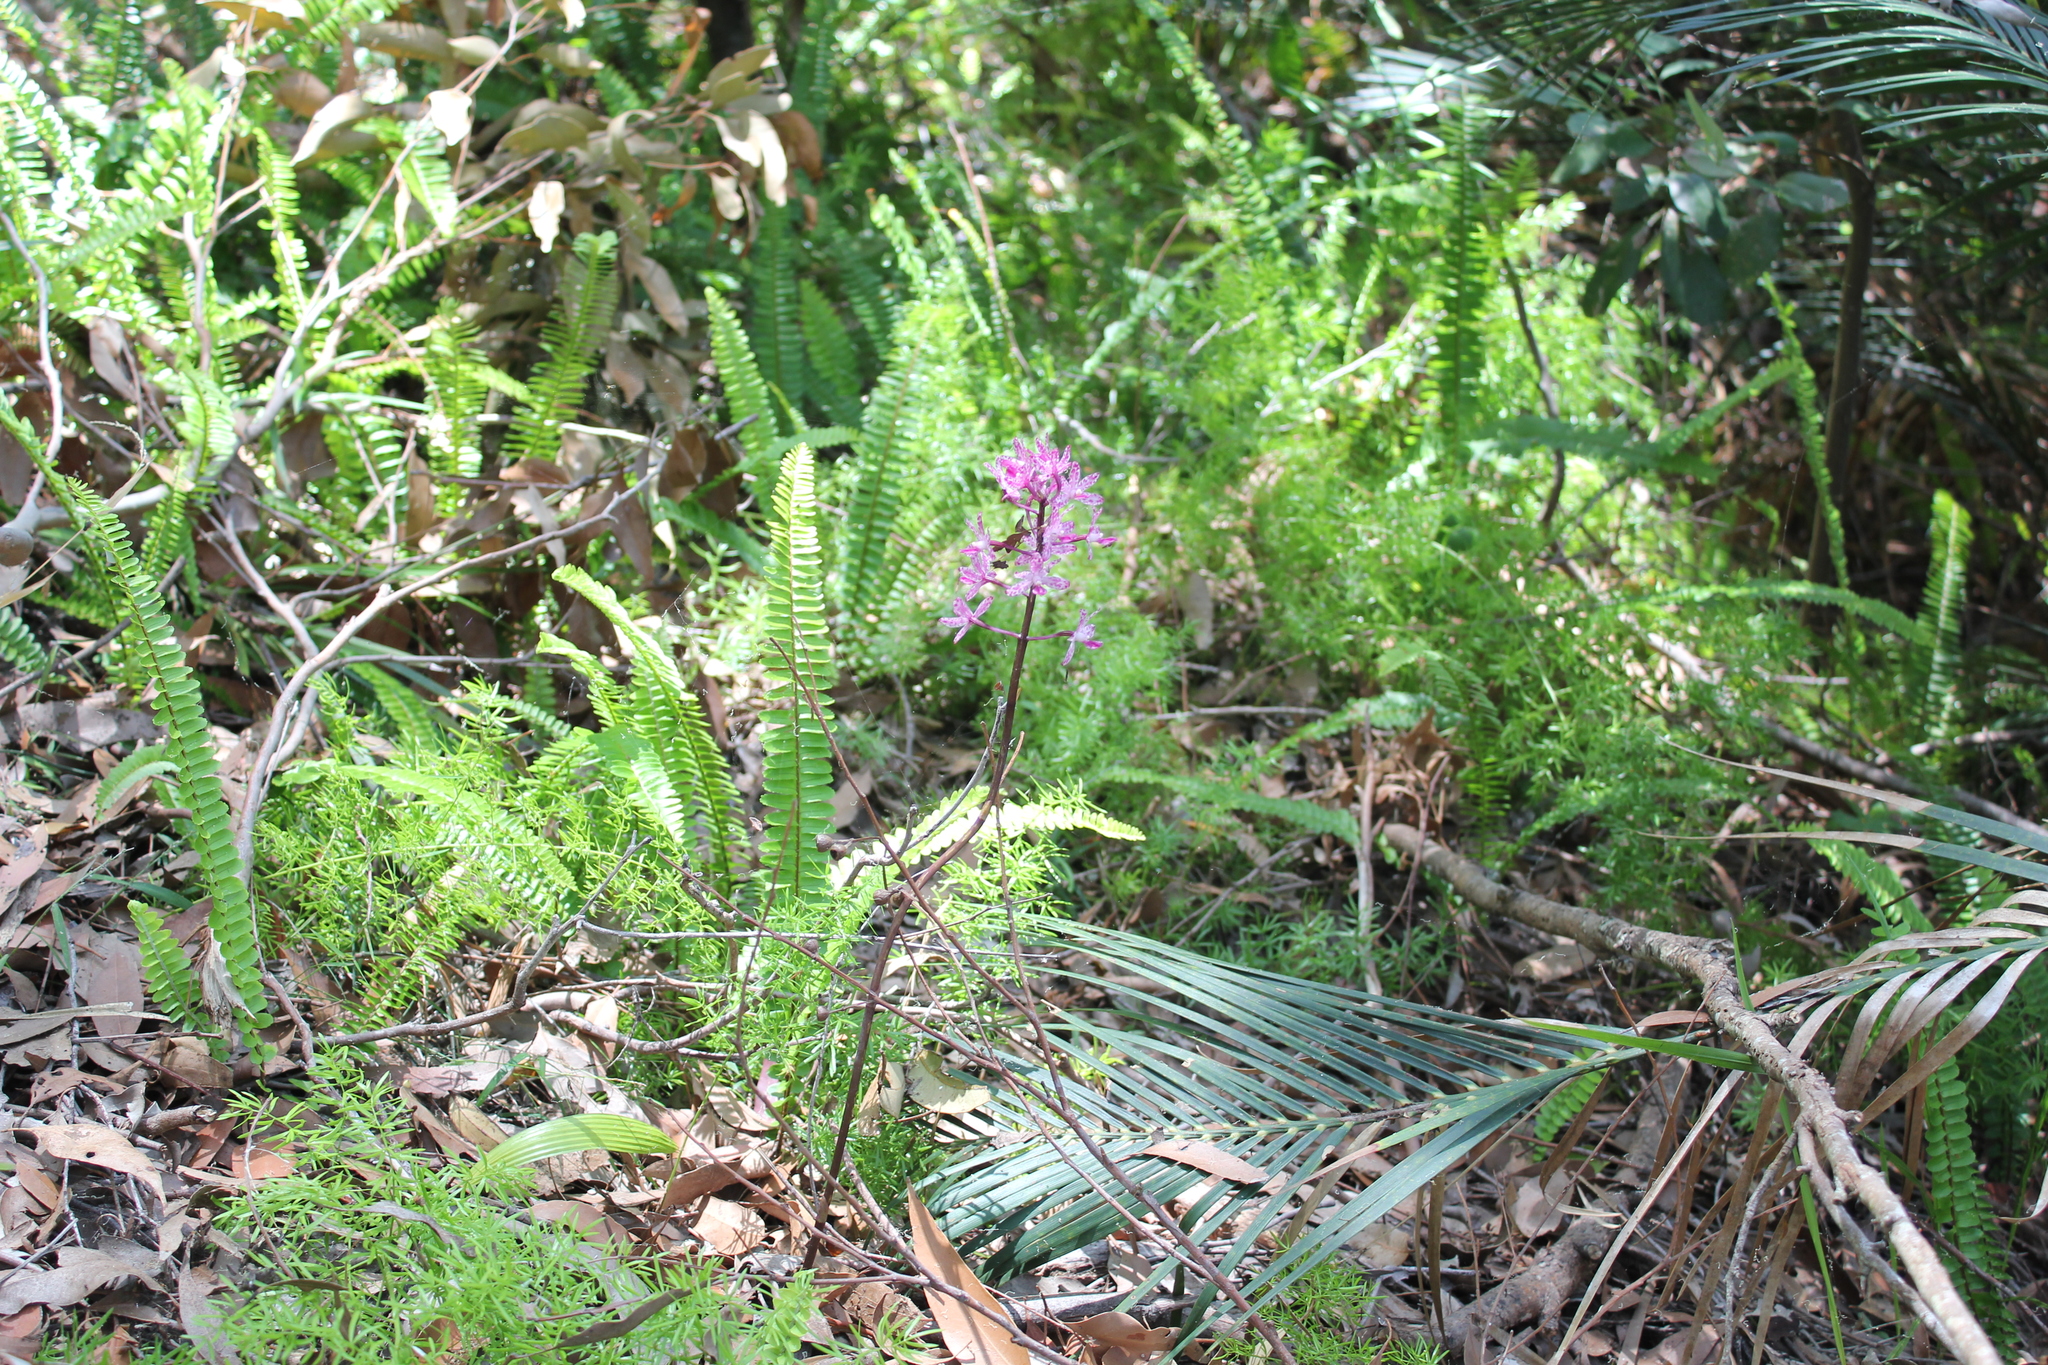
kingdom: Plantae
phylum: Tracheophyta
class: Liliopsida
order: Asparagales
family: Orchidaceae
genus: Dipodium
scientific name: Dipodium squamatum
